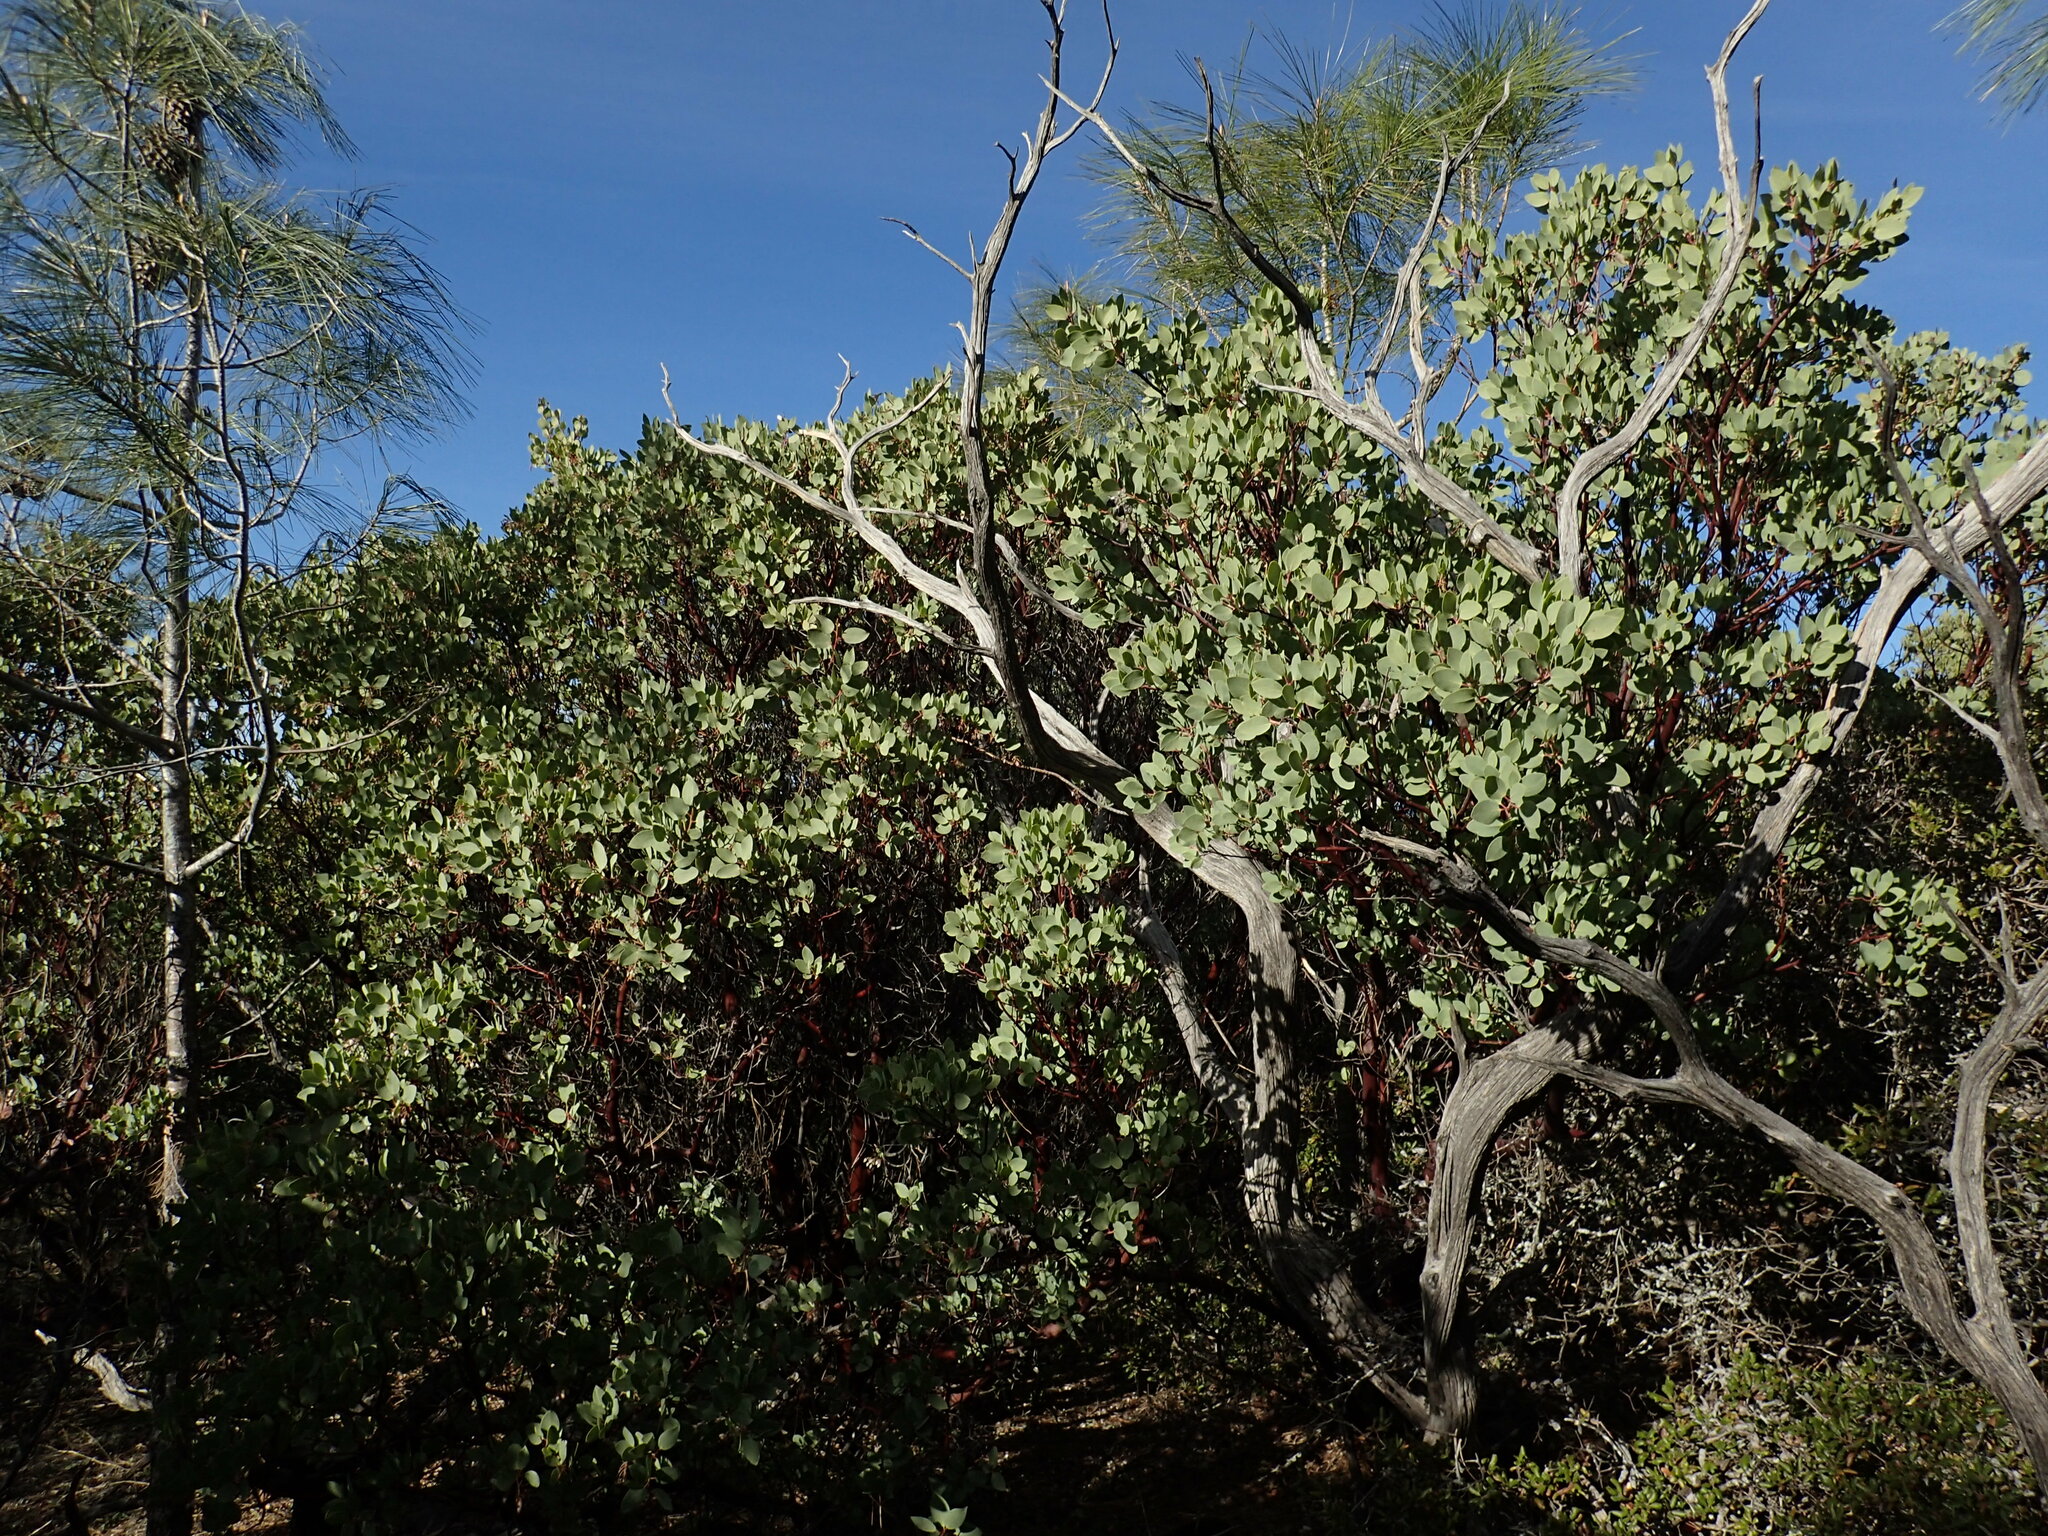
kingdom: Plantae
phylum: Tracheophyta
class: Magnoliopsida
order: Ericales
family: Ericaceae
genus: Arctostaphylos
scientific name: Arctostaphylos glauca
